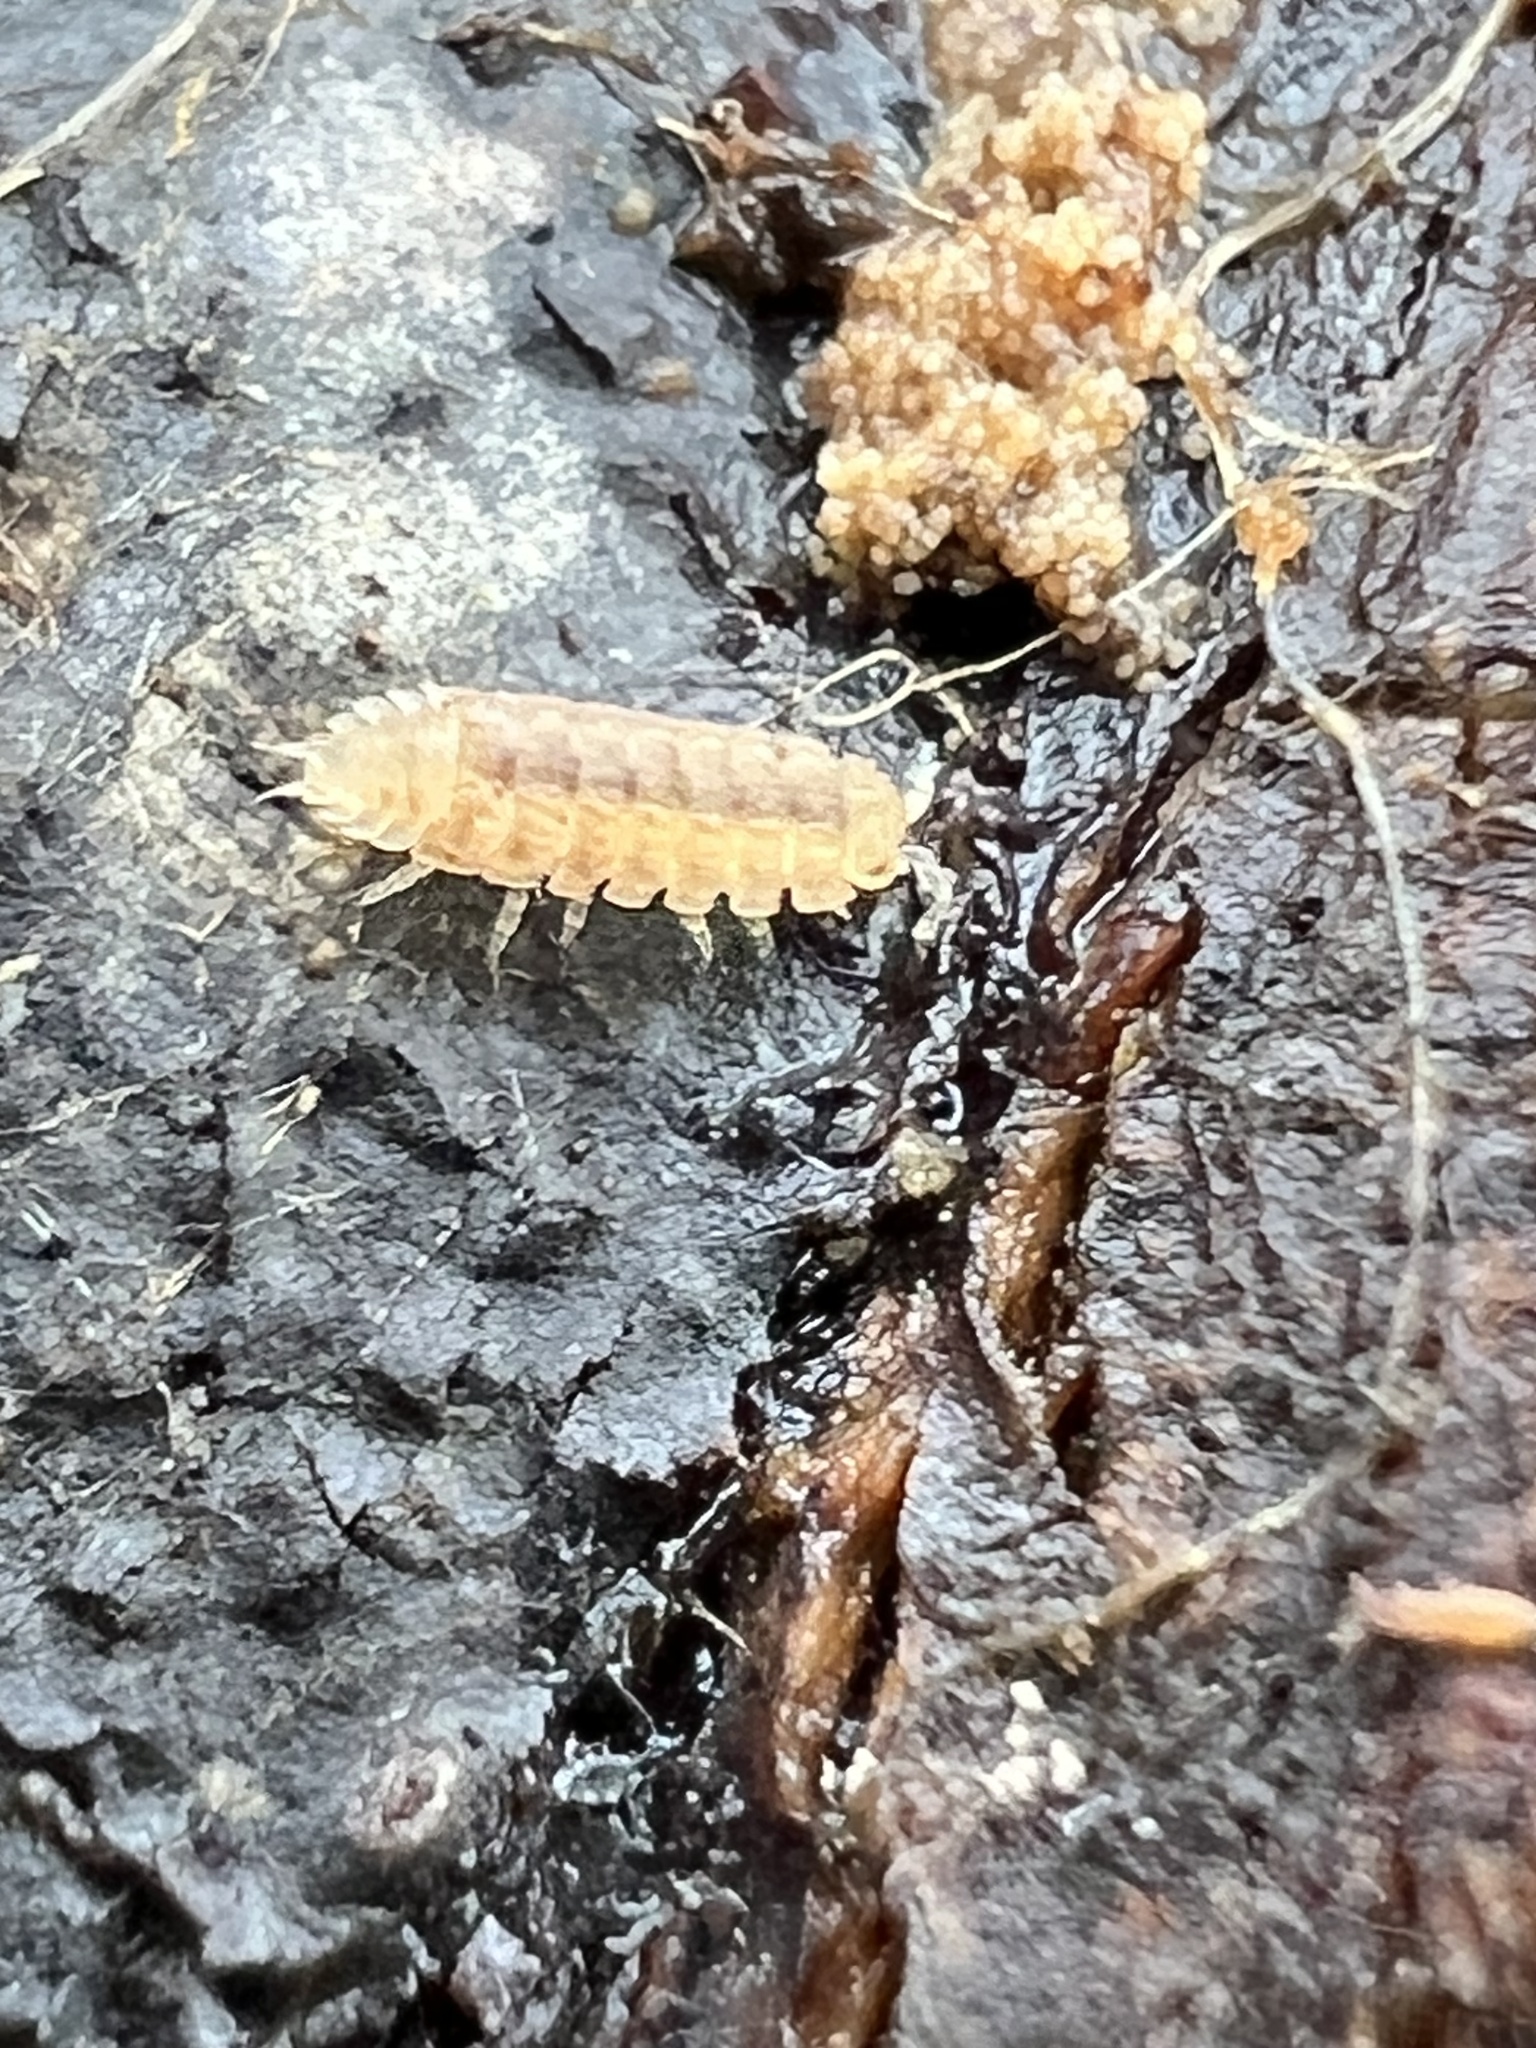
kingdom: Animalia
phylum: Arthropoda
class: Malacostraca
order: Isopoda
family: Trichoniscidae
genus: Haplophthalmus
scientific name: Haplophthalmus danicus
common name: Pillbug
